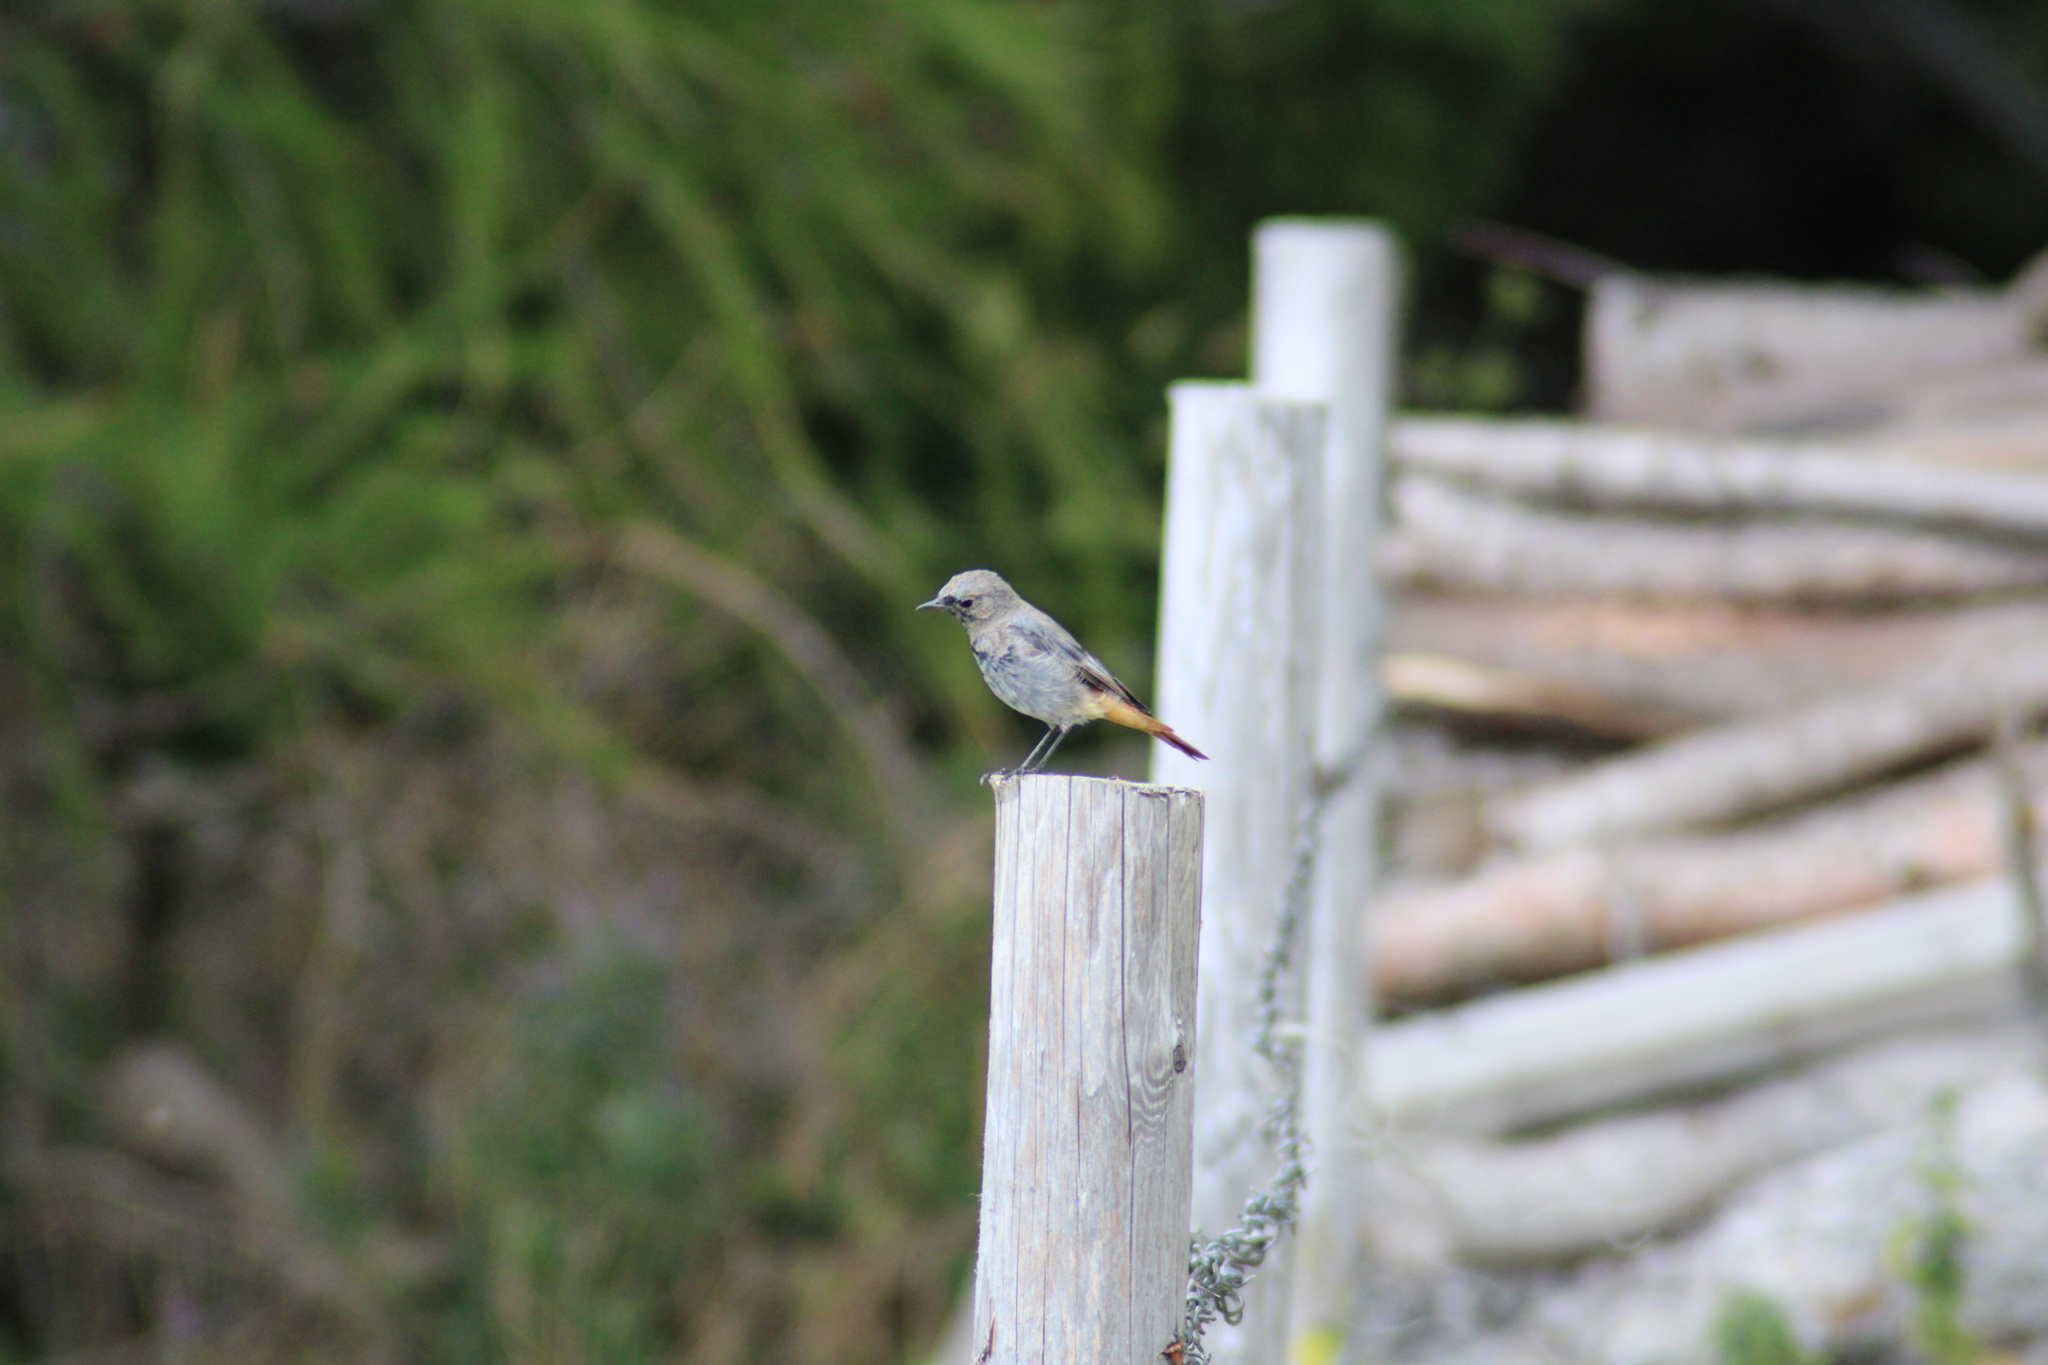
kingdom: Animalia
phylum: Chordata
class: Aves
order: Passeriformes
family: Muscicapidae
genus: Phoenicurus
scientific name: Phoenicurus ochruros
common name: Black redstart
